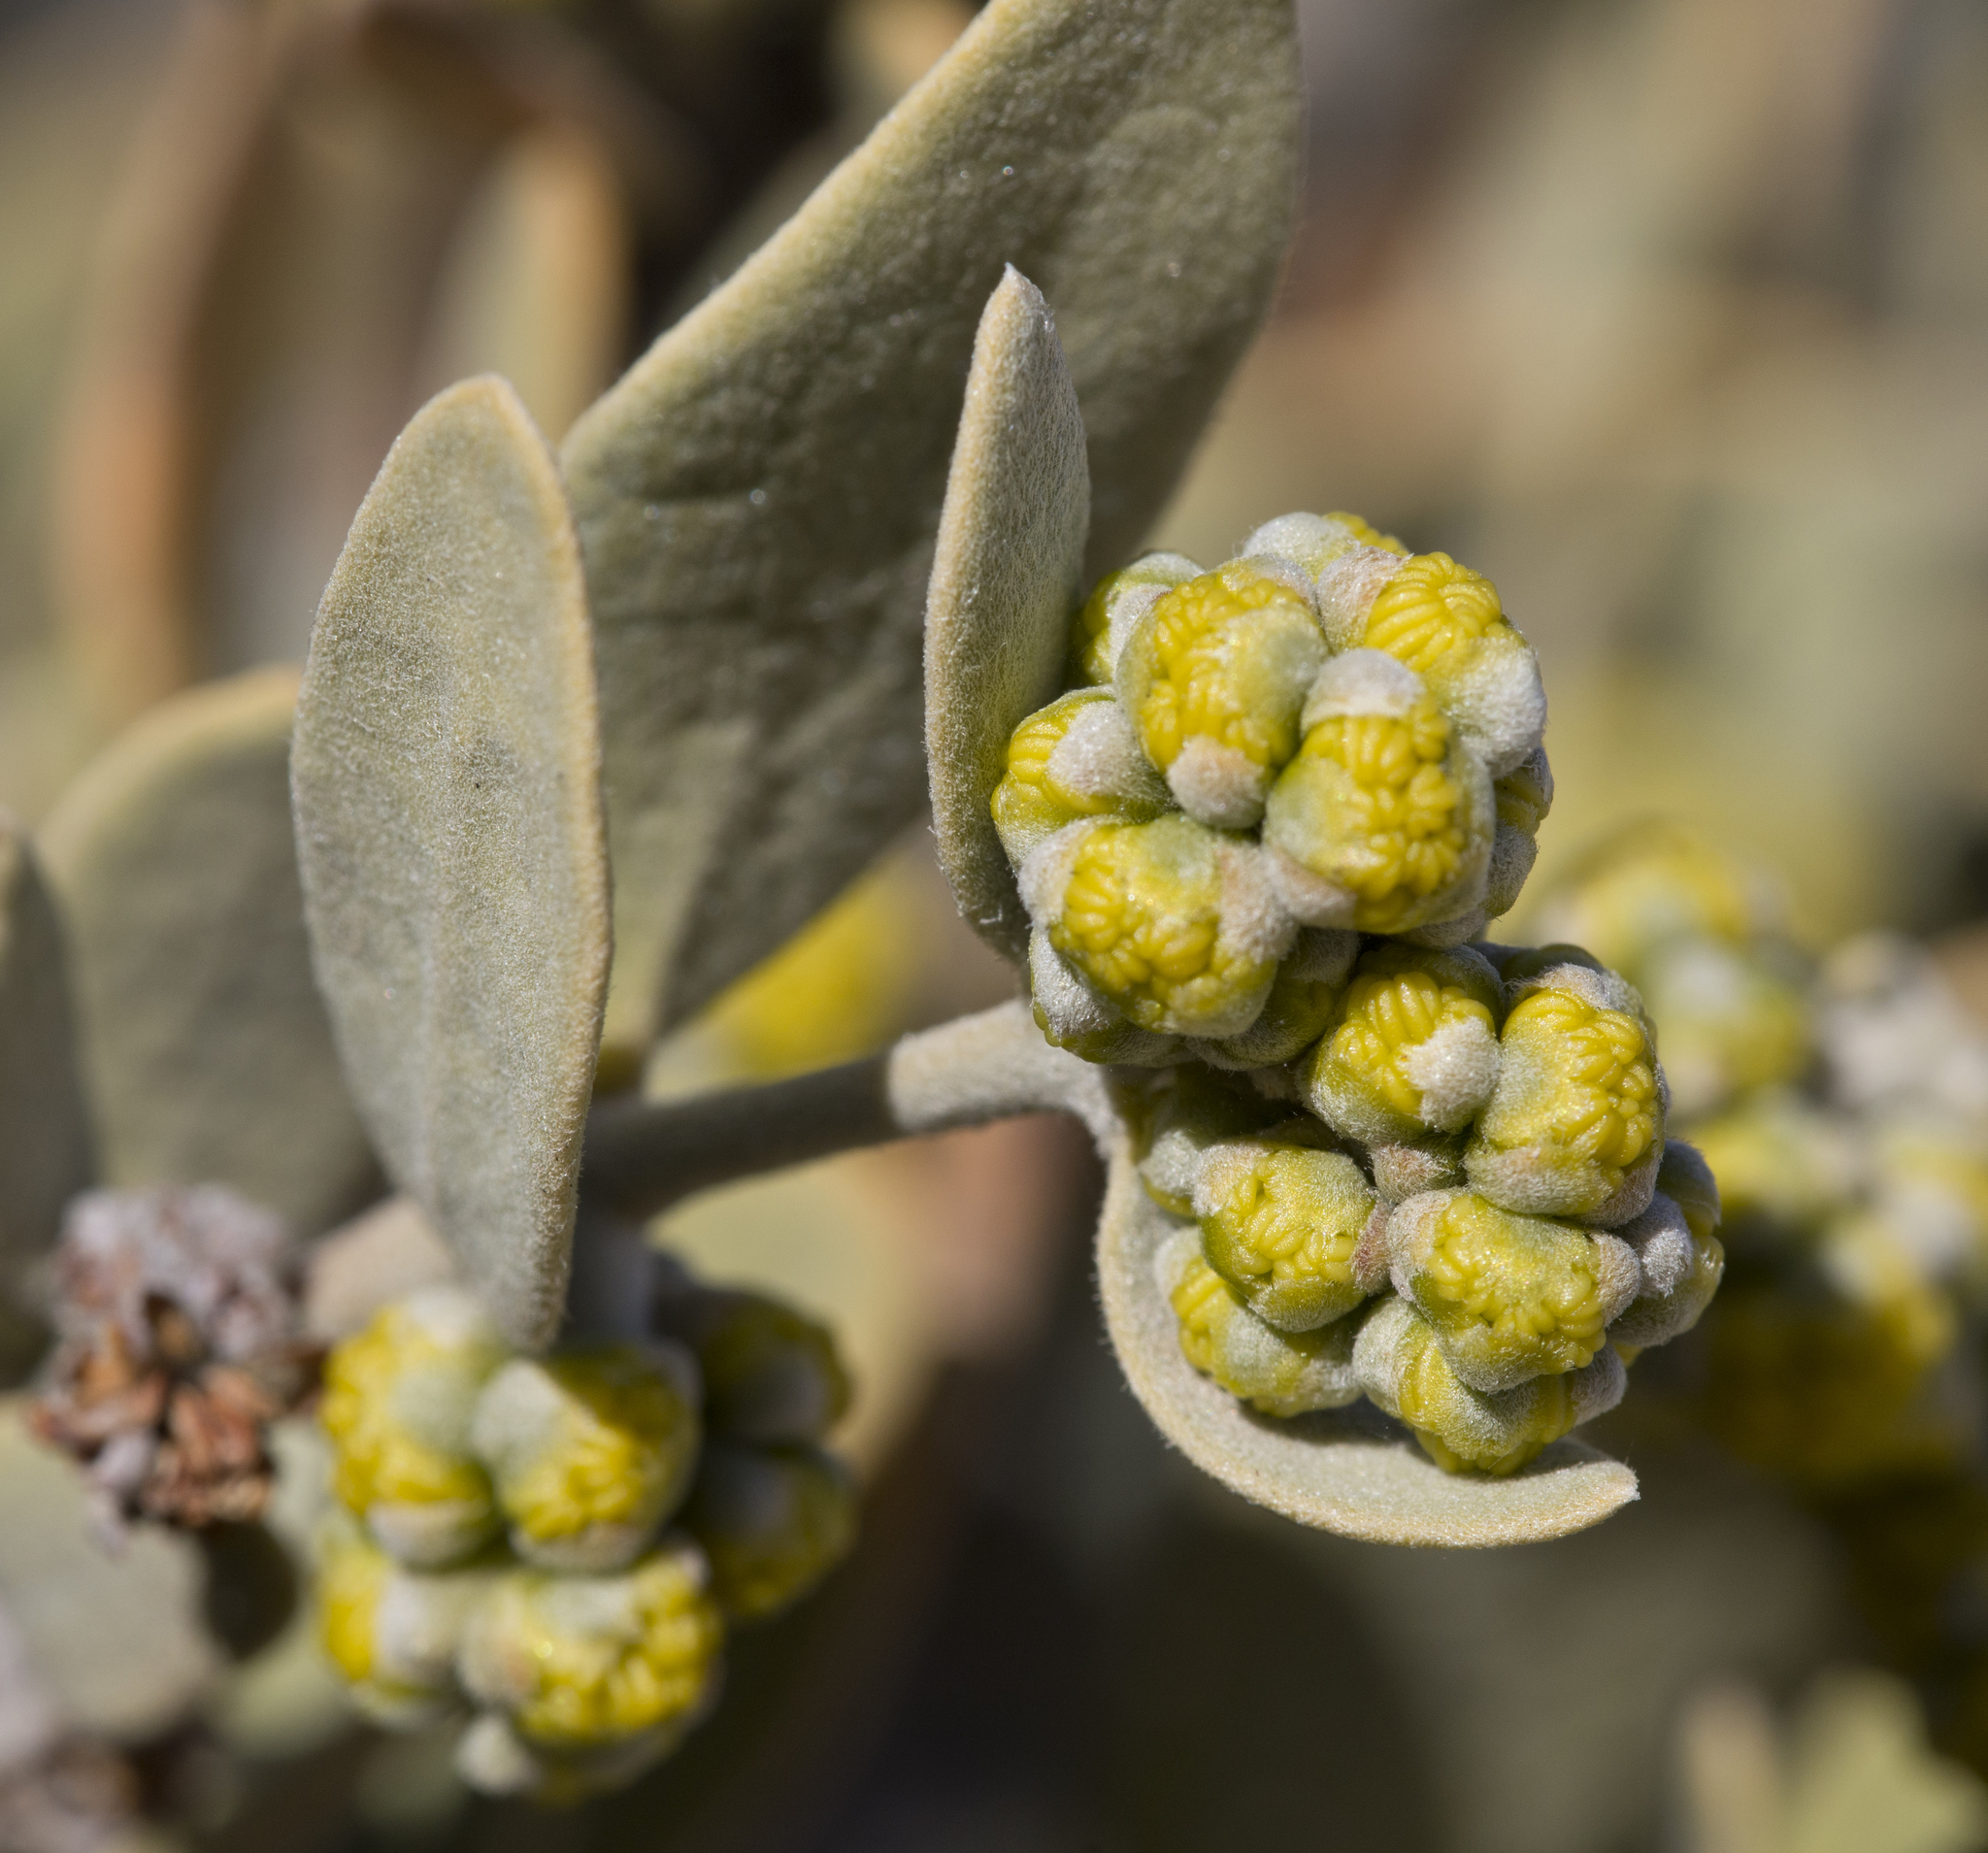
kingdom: Plantae
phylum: Tracheophyta
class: Magnoliopsida
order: Caryophyllales
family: Simmondsiaceae
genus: Simmondsia
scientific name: Simmondsia chinensis
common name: Jojoba
